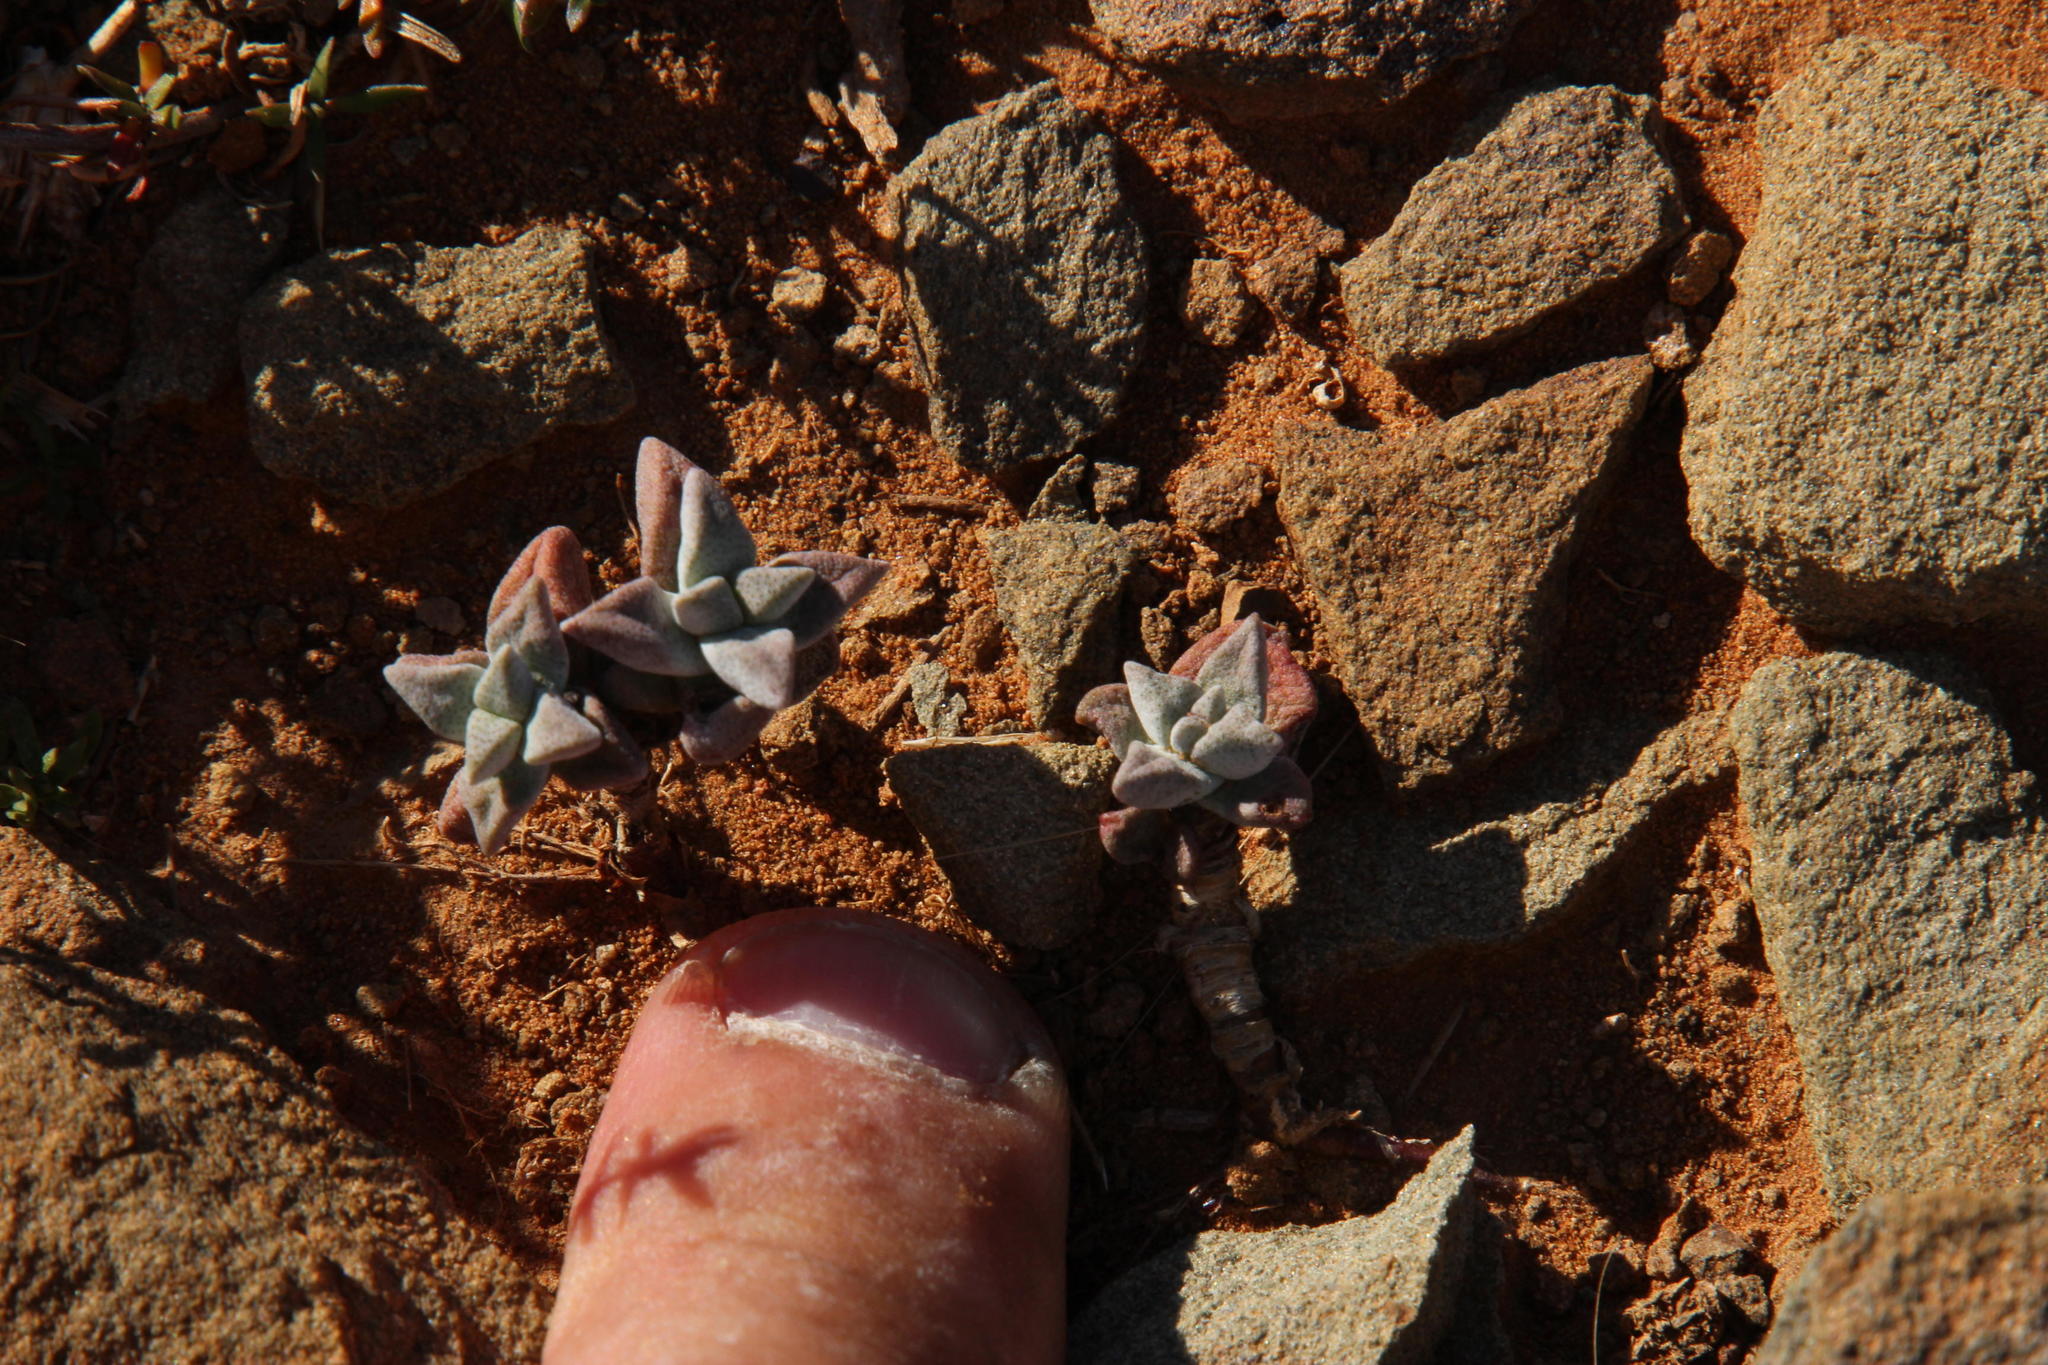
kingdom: Plantae
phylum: Tracheophyta
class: Magnoliopsida
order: Saxifragales
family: Crassulaceae
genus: Crassula
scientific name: Crassula deltoidea
